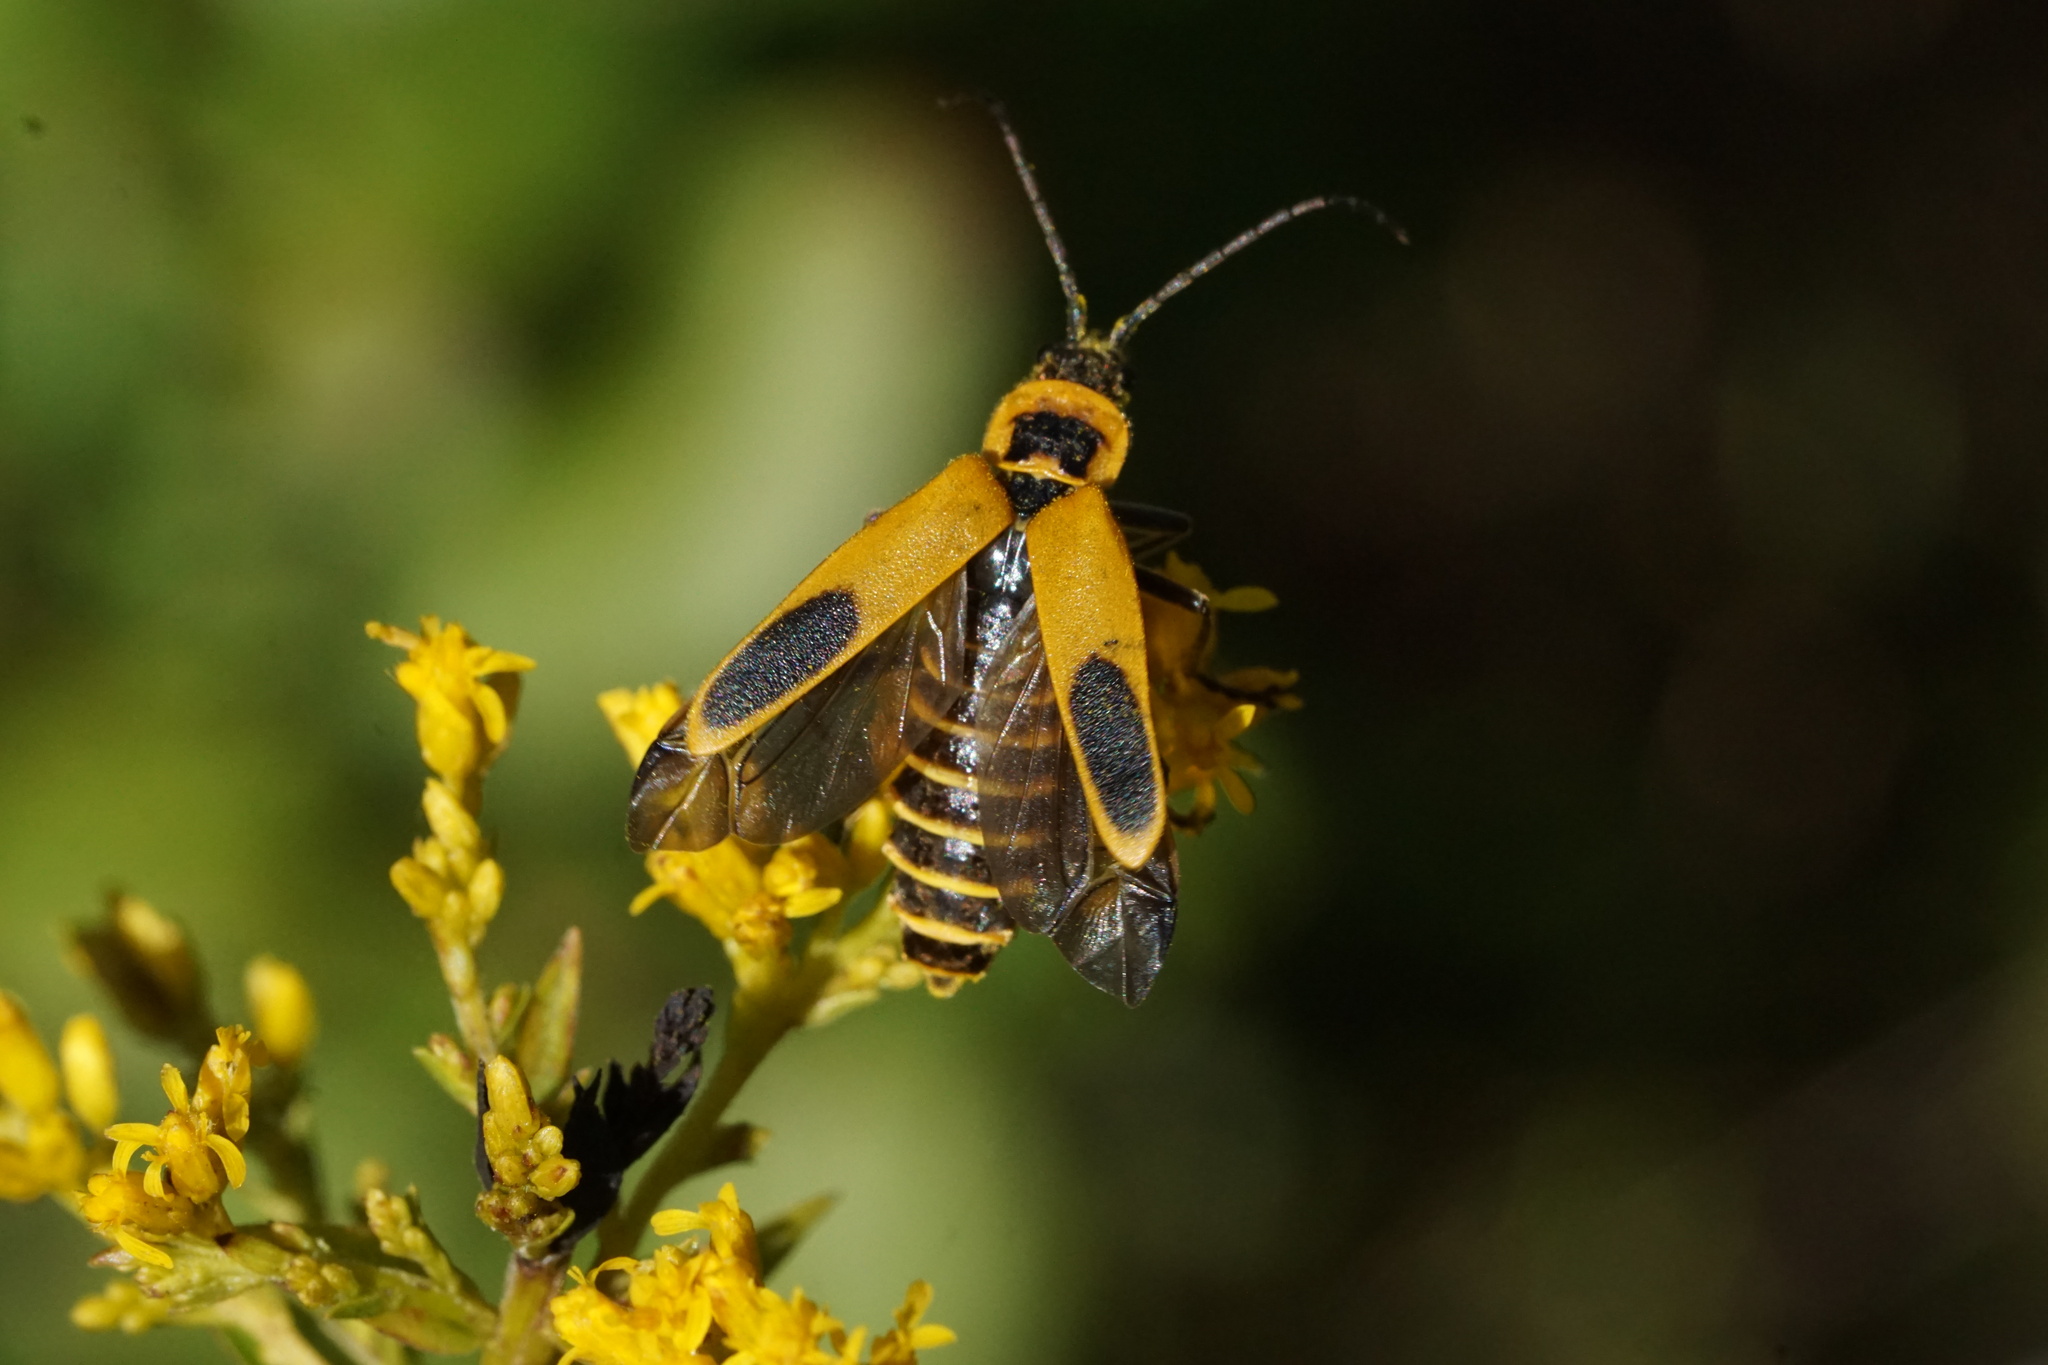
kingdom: Animalia
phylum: Arthropoda
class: Insecta
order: Coleoptera
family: Cantharidae
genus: Chauliognathus
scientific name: Chauliognathus pensylvanicus
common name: Goldenrod soldier beetle
